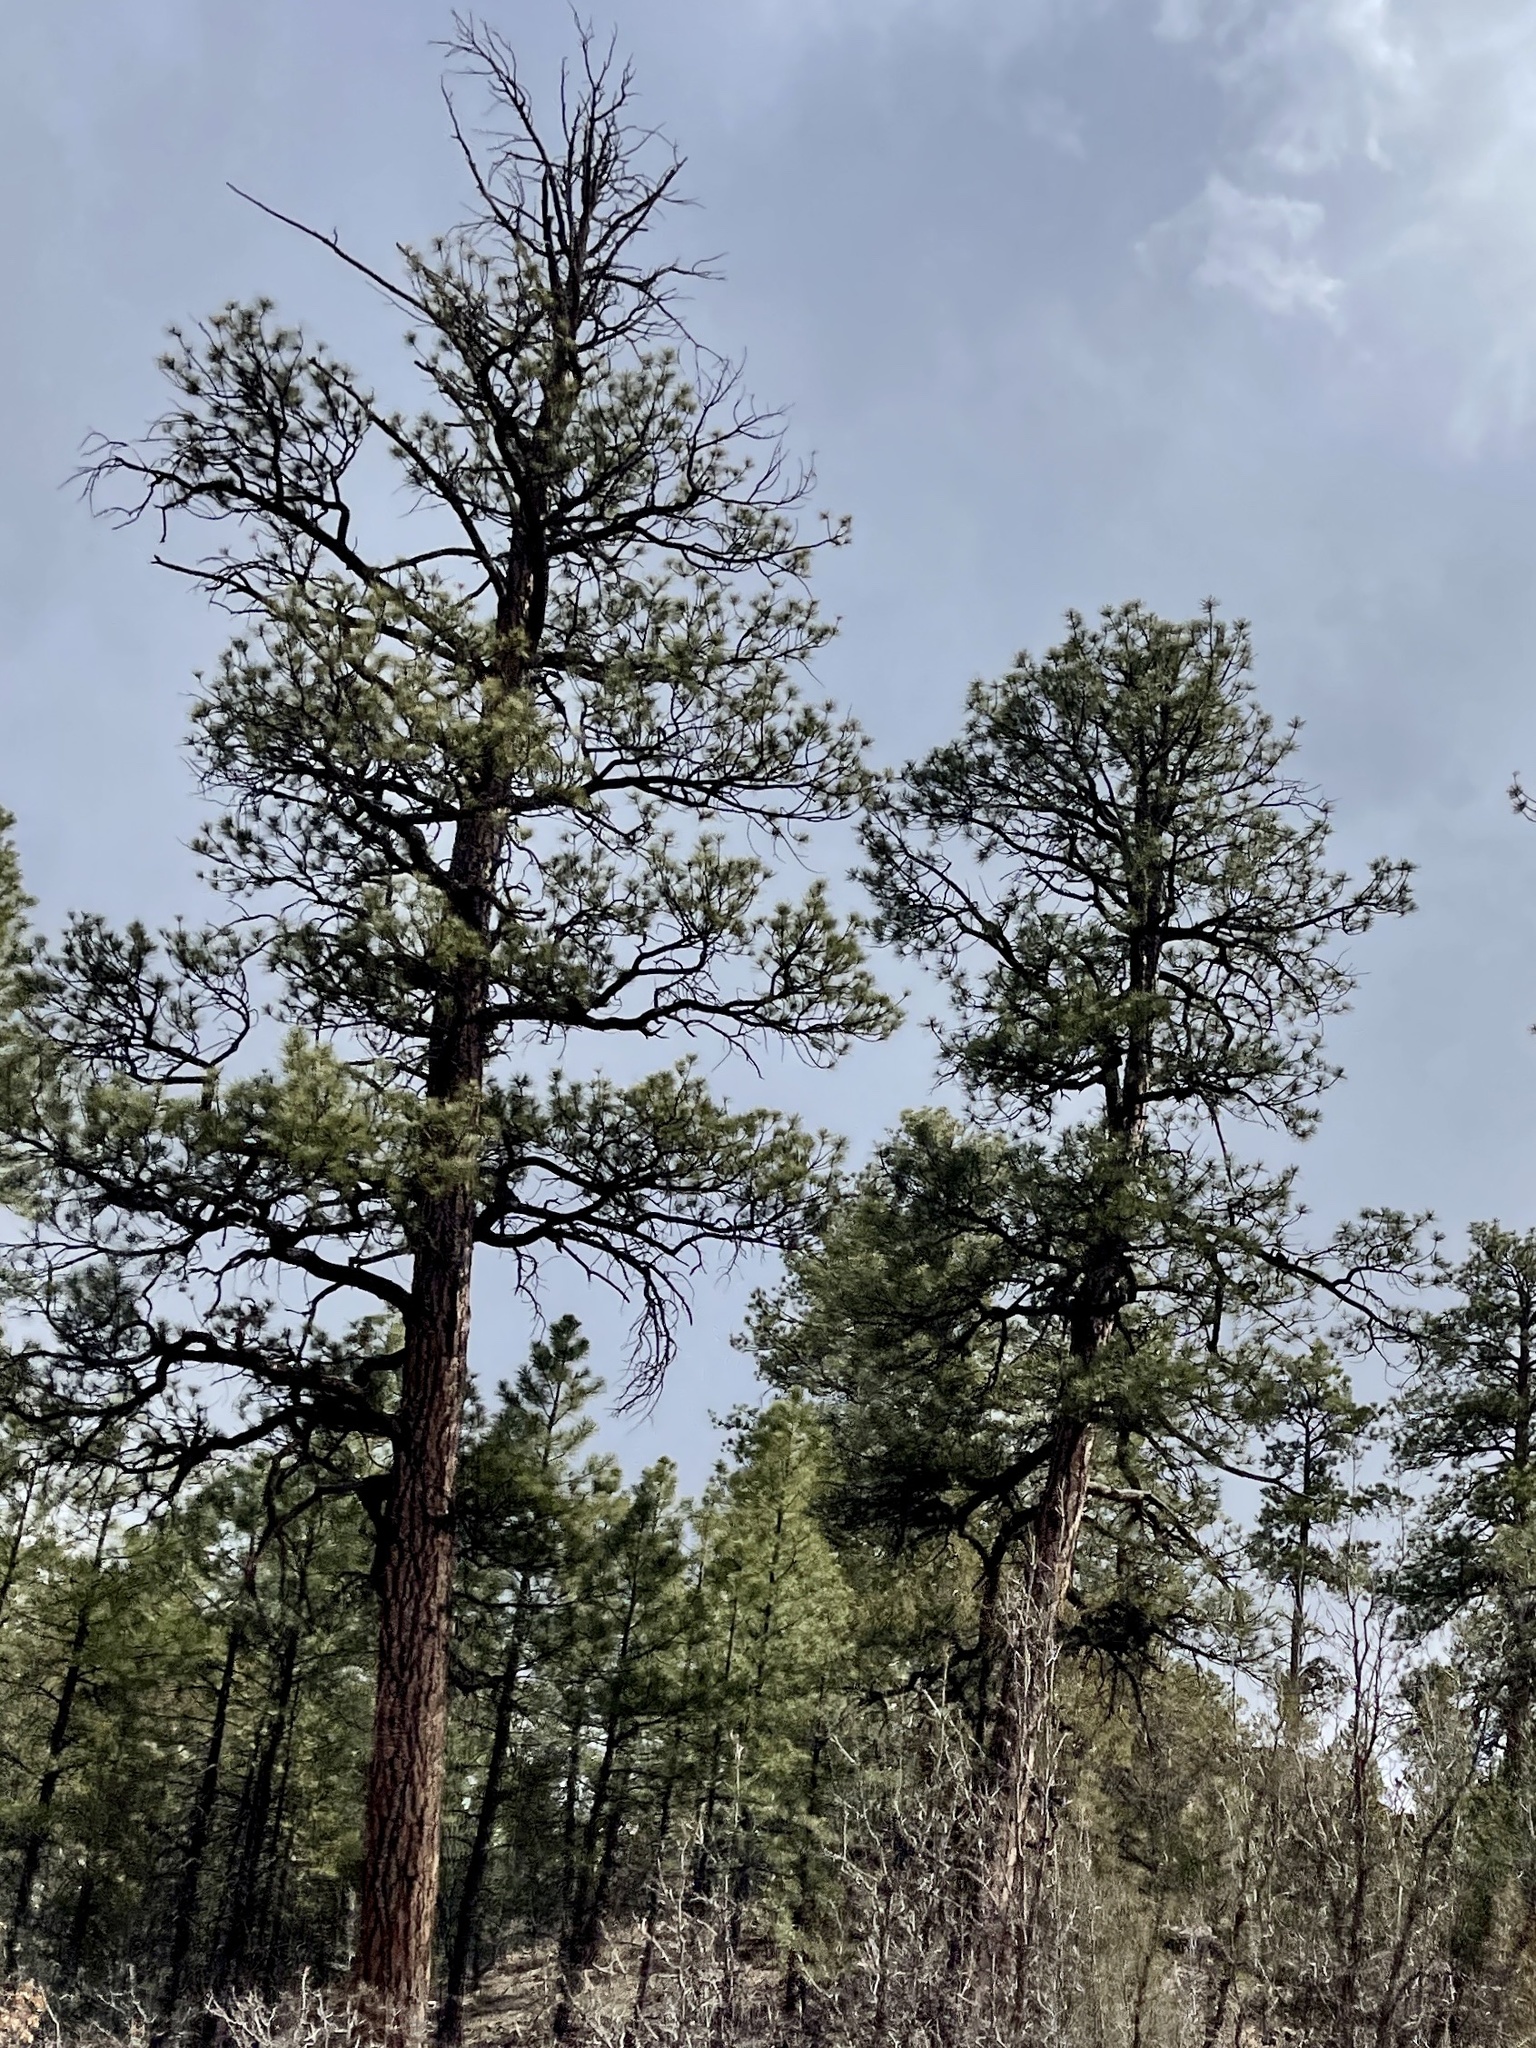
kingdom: Plantae
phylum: Tracheophyta
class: Pinopsida
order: Pinales
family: Pinaceae
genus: Pinus
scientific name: Pinus ponderosa
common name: Western yellow-pine
